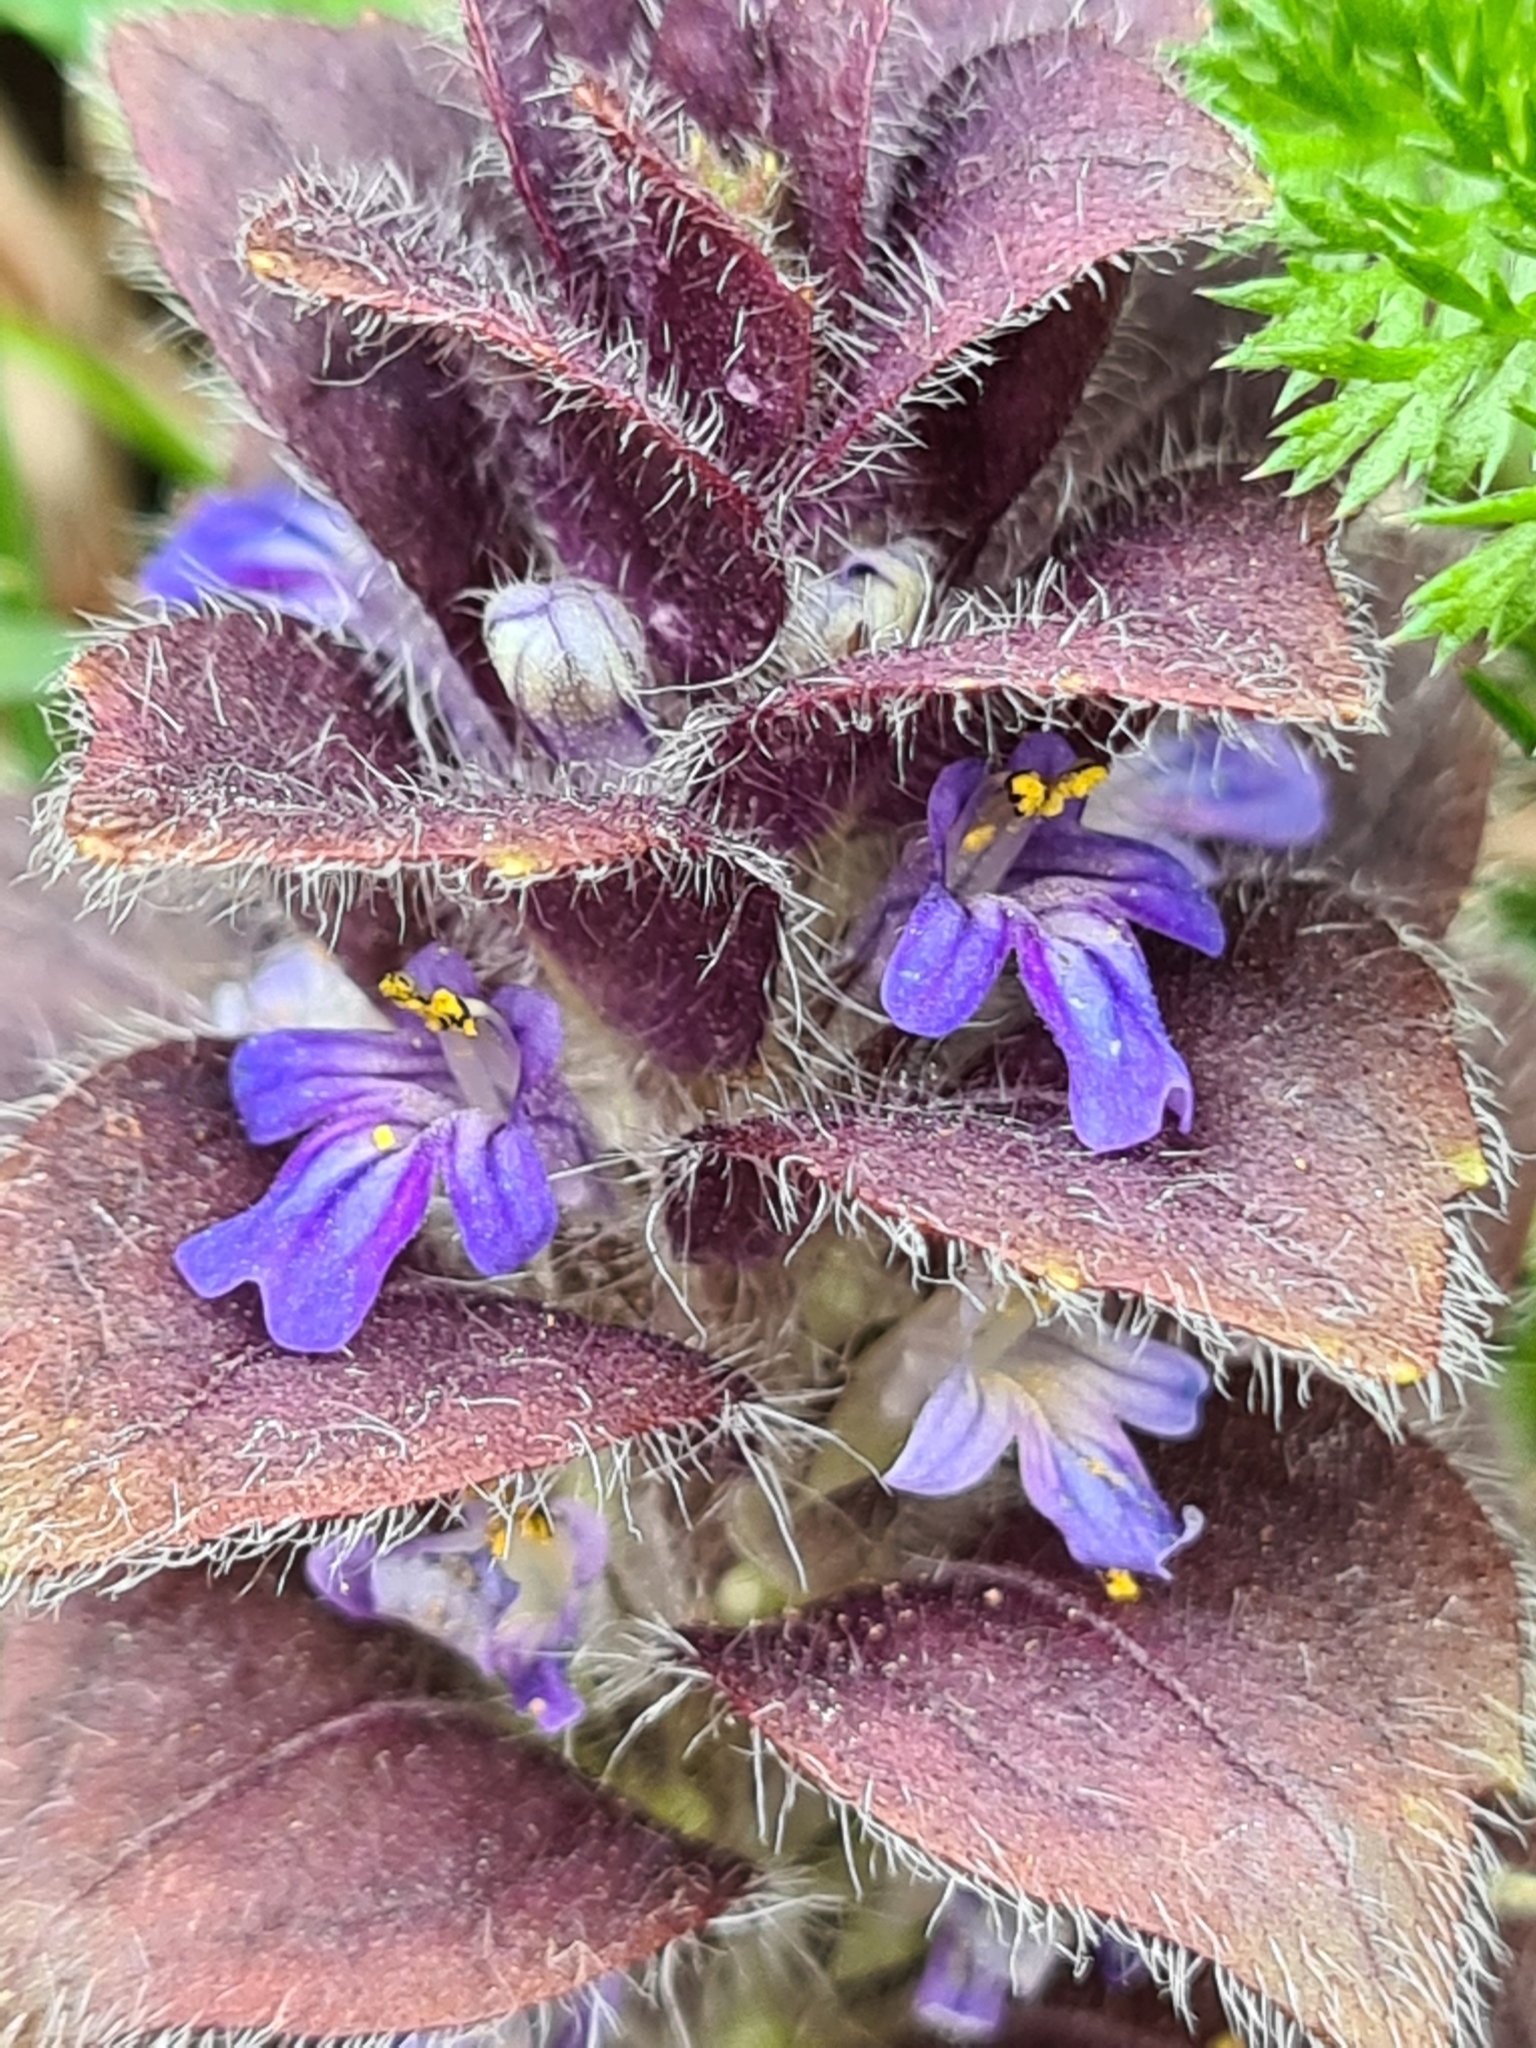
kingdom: Plantae
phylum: Tracheophyta
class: Magnoliopsida
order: Lamiales
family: Lamiaceae
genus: Ajuga
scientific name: Ajuga pyramidalis
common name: Pyramid bugle
